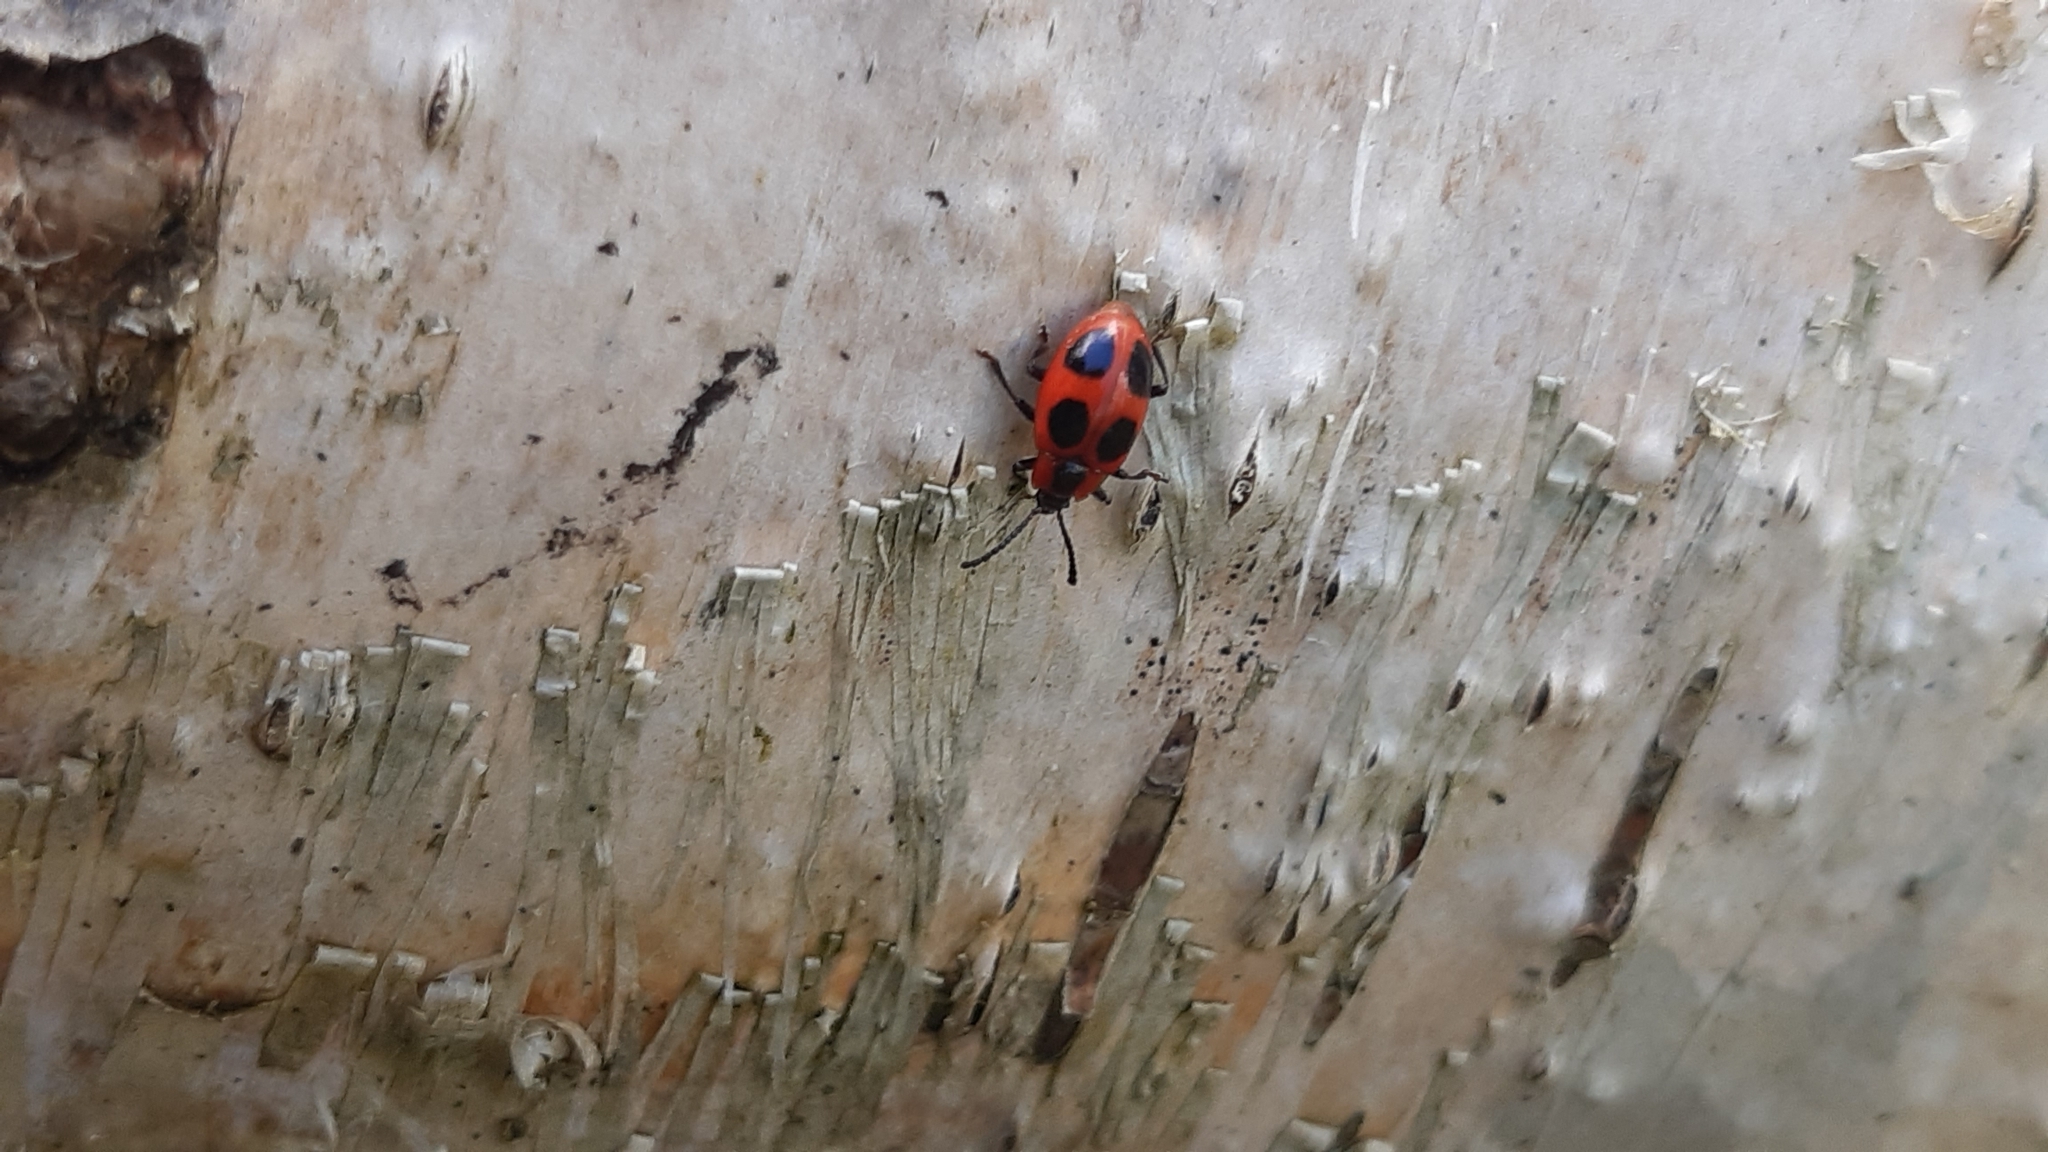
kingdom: Animalia
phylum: Arthropoda
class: Insecta
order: Coleoptera
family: Endomychidae
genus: Endomychus
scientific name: Endomychus coccineus
